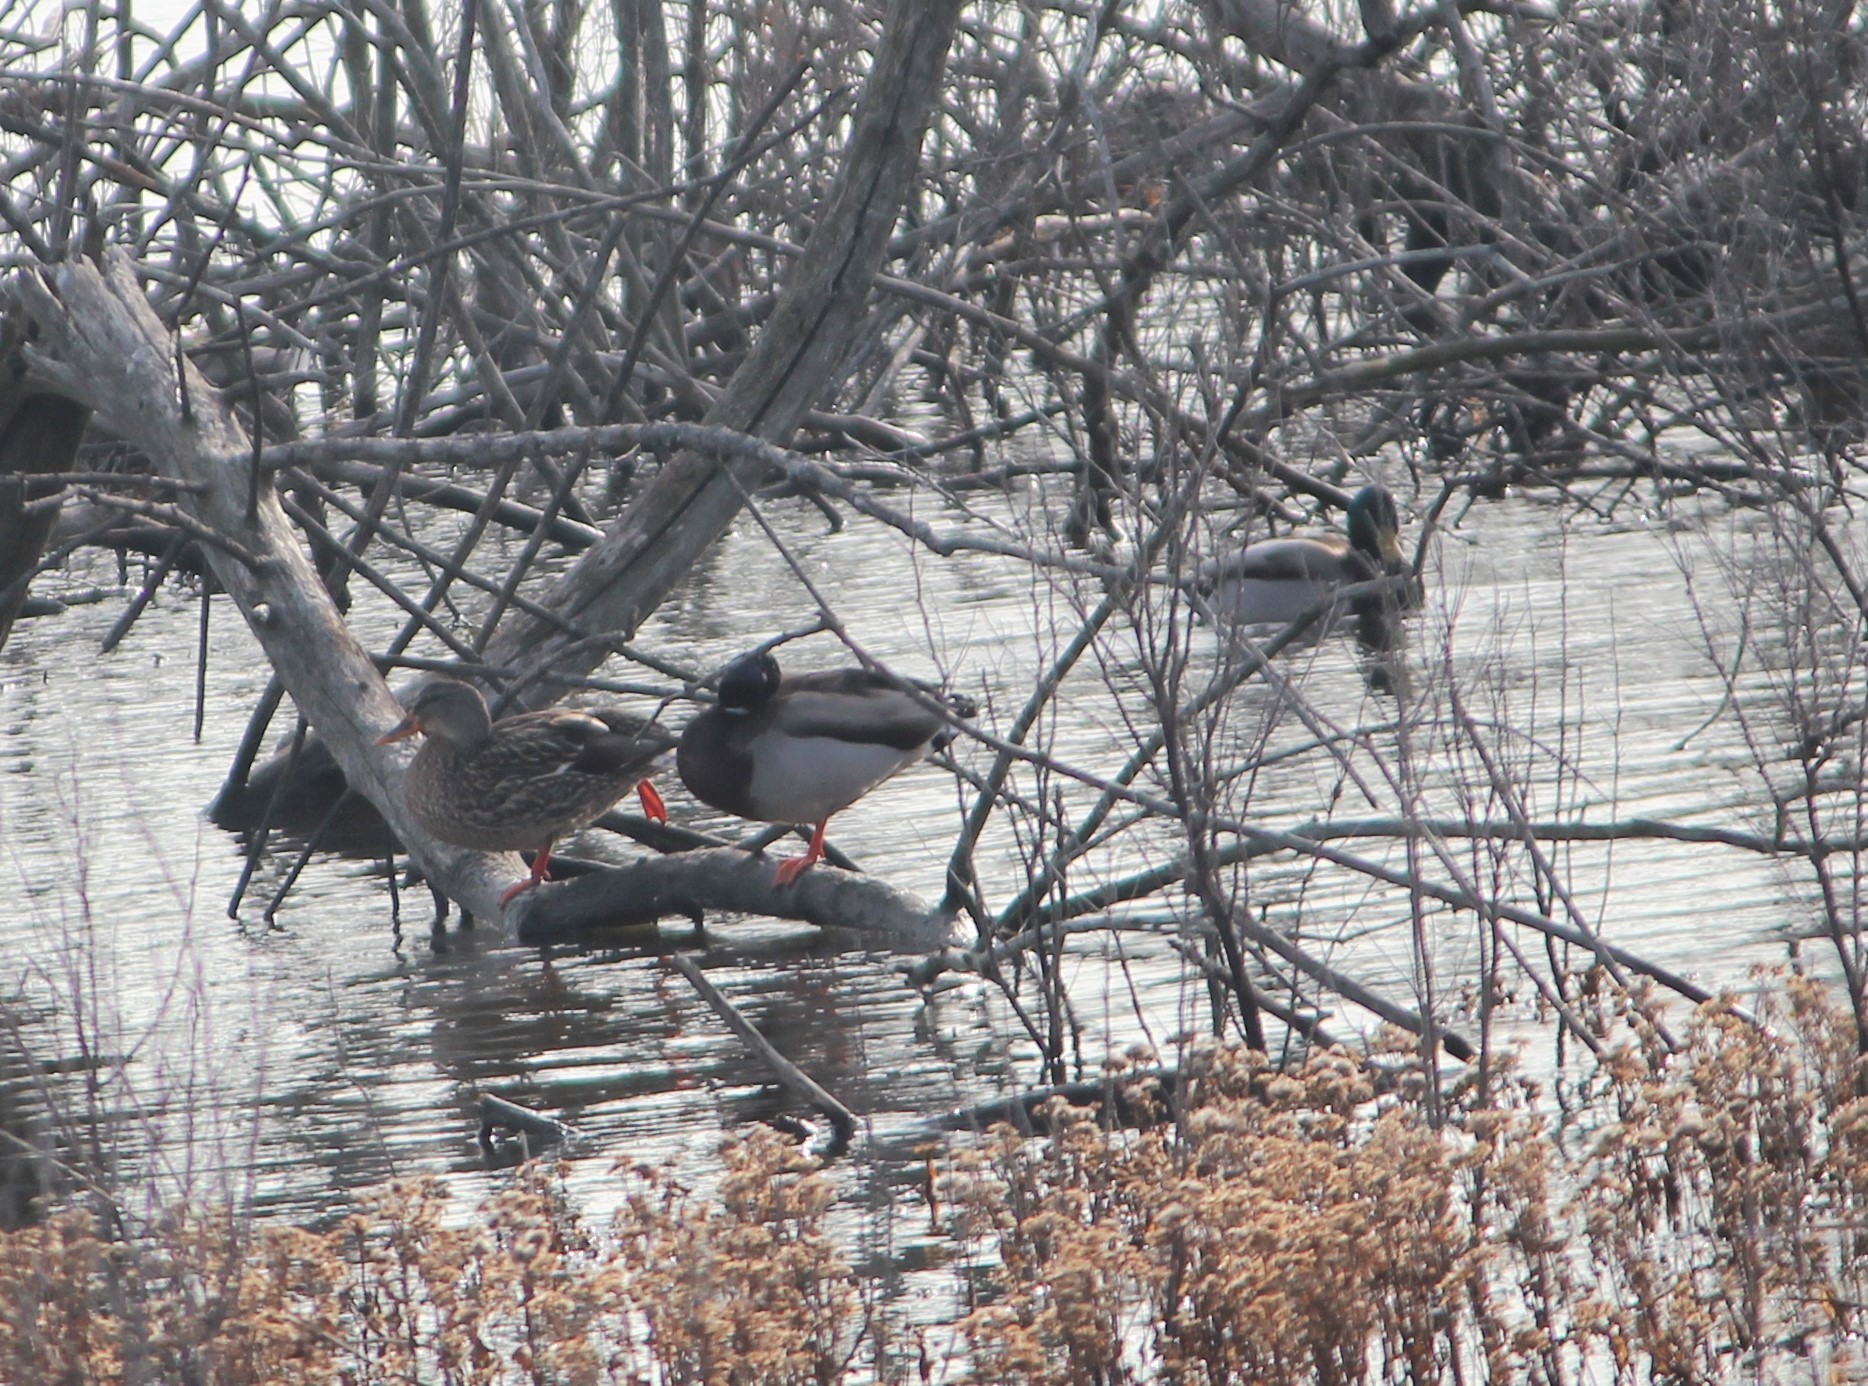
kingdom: Animalia
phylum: Chordata
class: Aves
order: Anseriformes
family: Anatidae
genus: Anas
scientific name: Anas platyrhynchos
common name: Mallard
